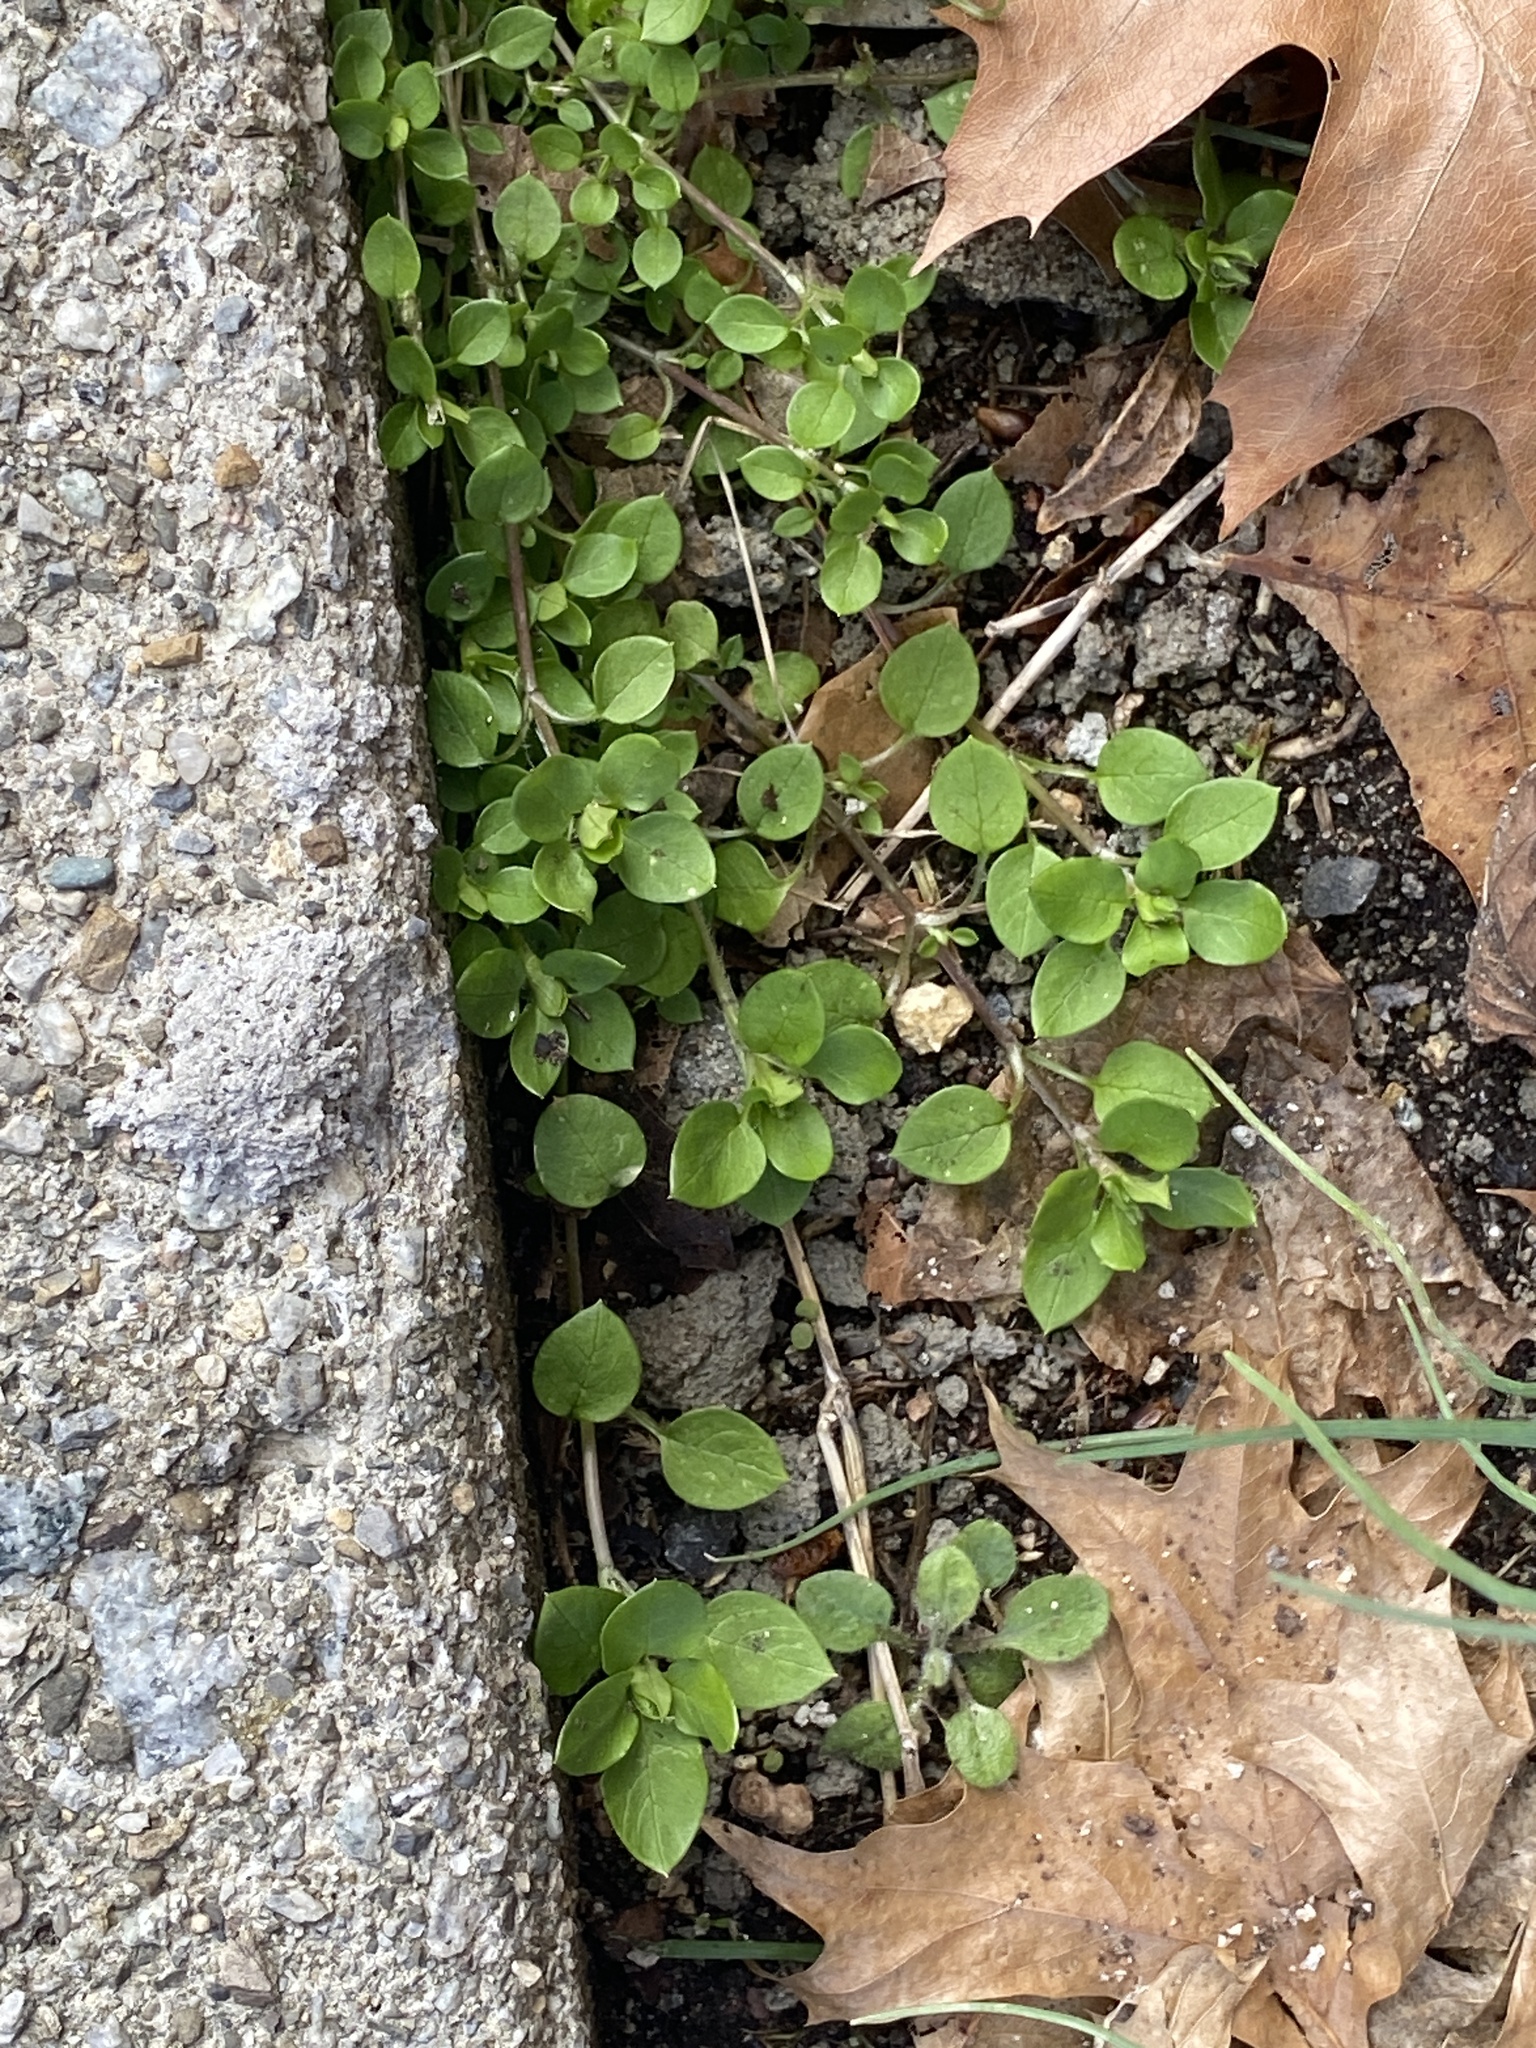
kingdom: Plantae
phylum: Tracheophyta
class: Magnoliopsida
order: Caryophyllales
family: Caryophyllaceae
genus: Stellaria
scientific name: Stellaria media
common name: Common chickweed
